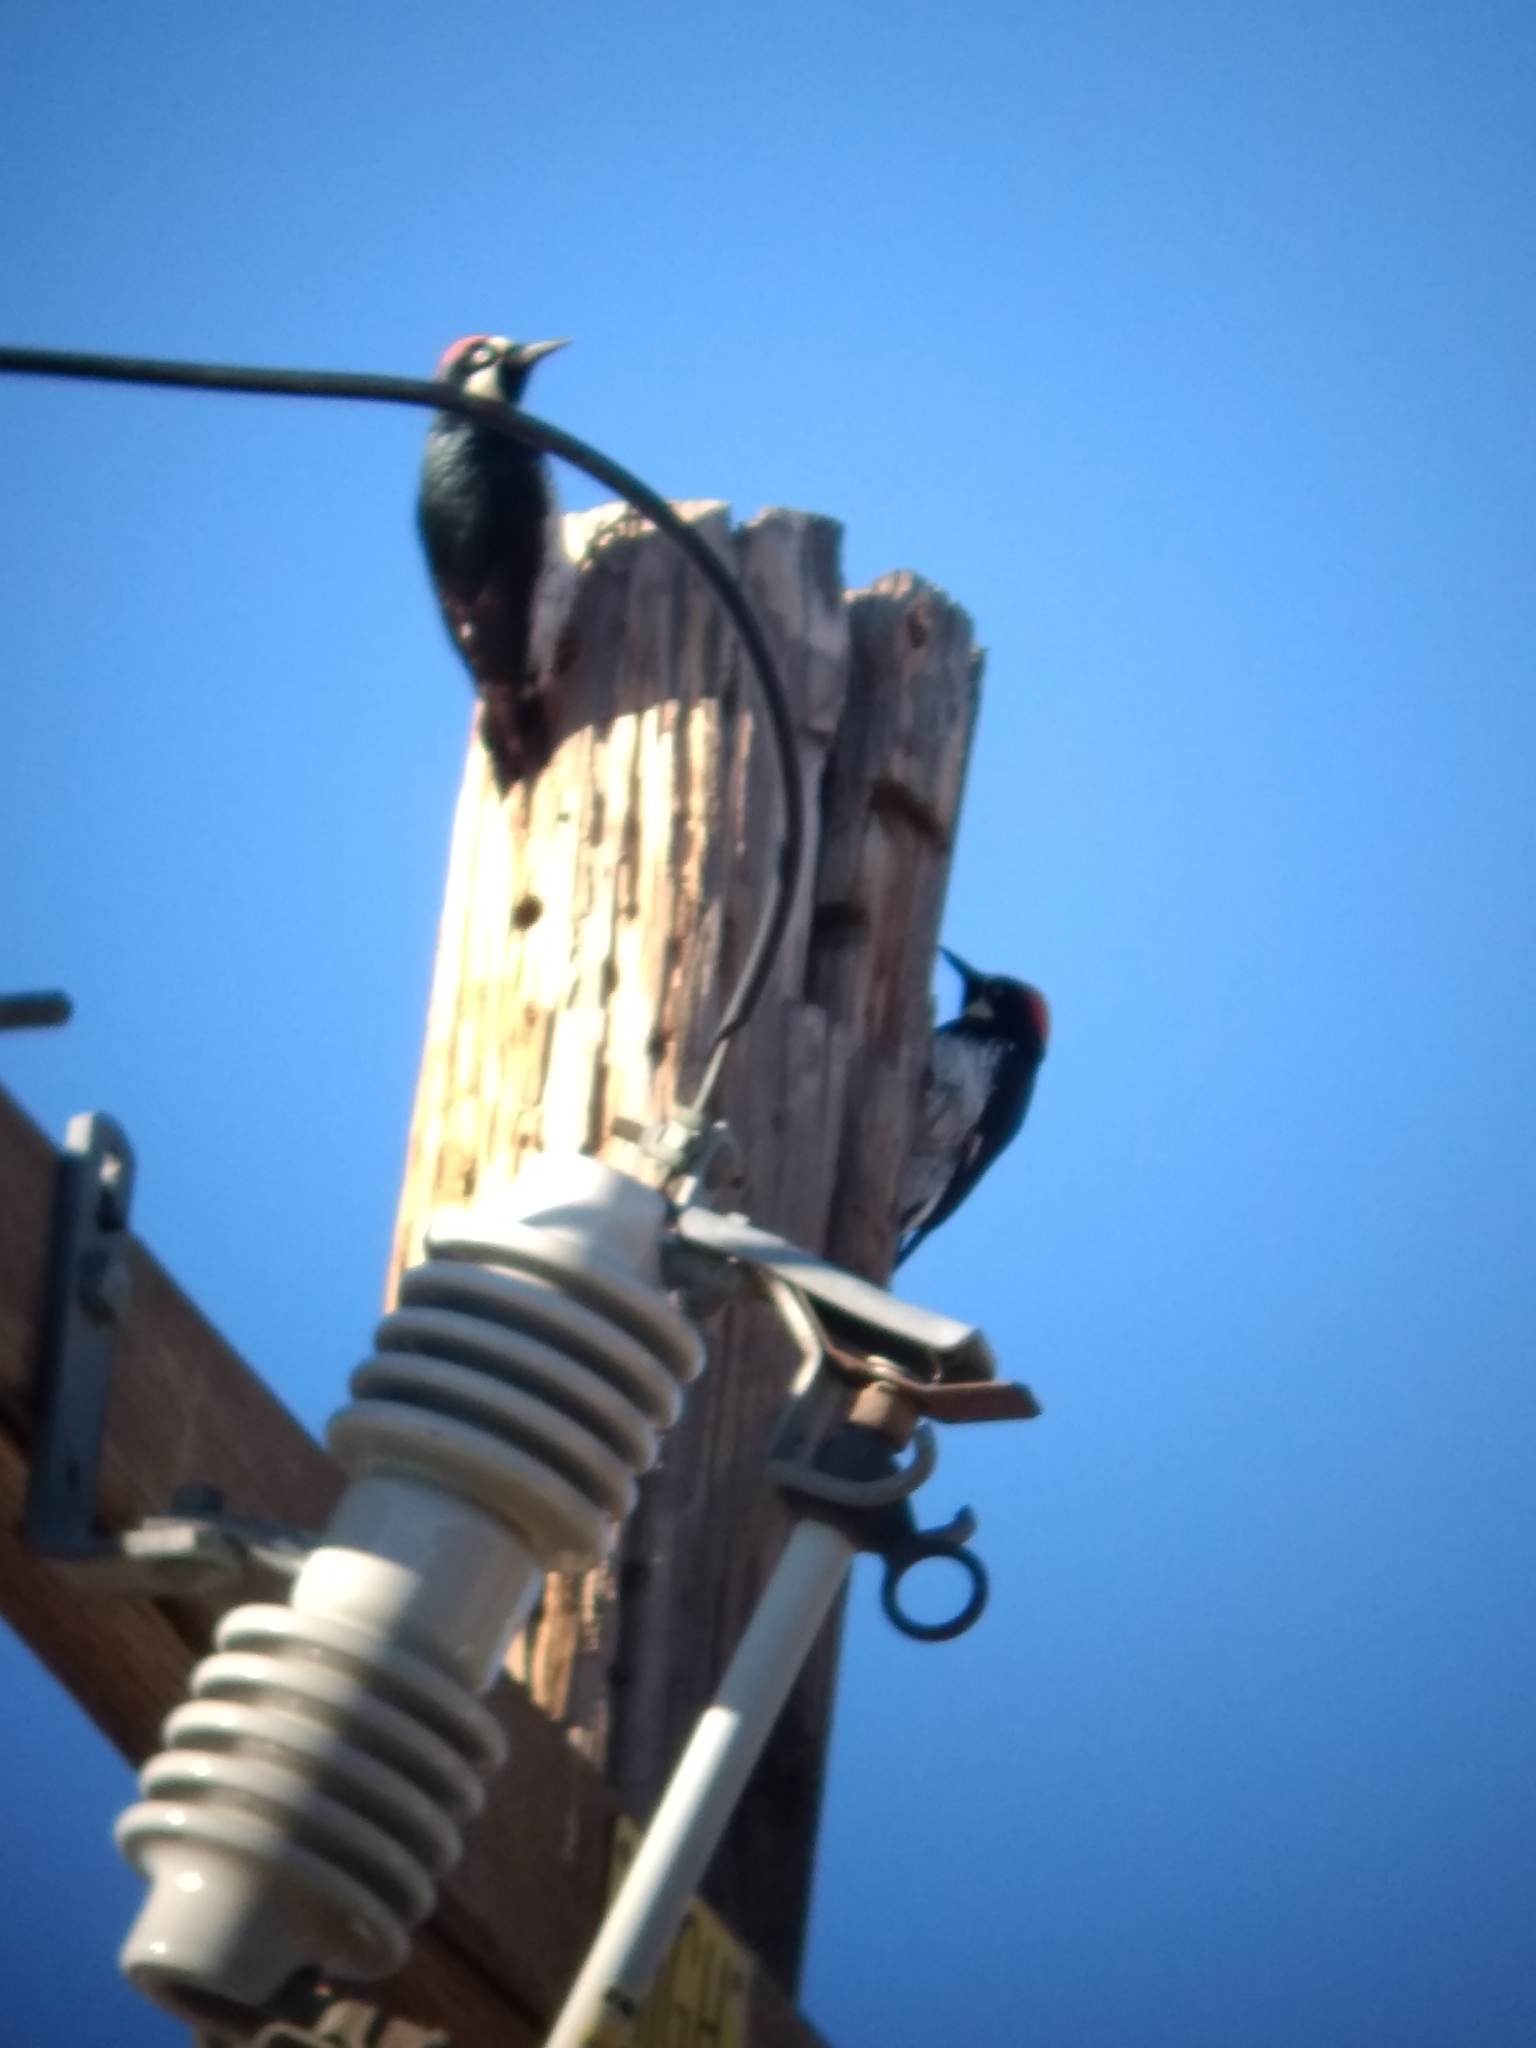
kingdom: Animalia
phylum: Chordata
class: Aves
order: Piciformes
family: Picidae
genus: Melanerpes
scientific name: Melanerpes formicivorus
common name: Acorn woodpecker
